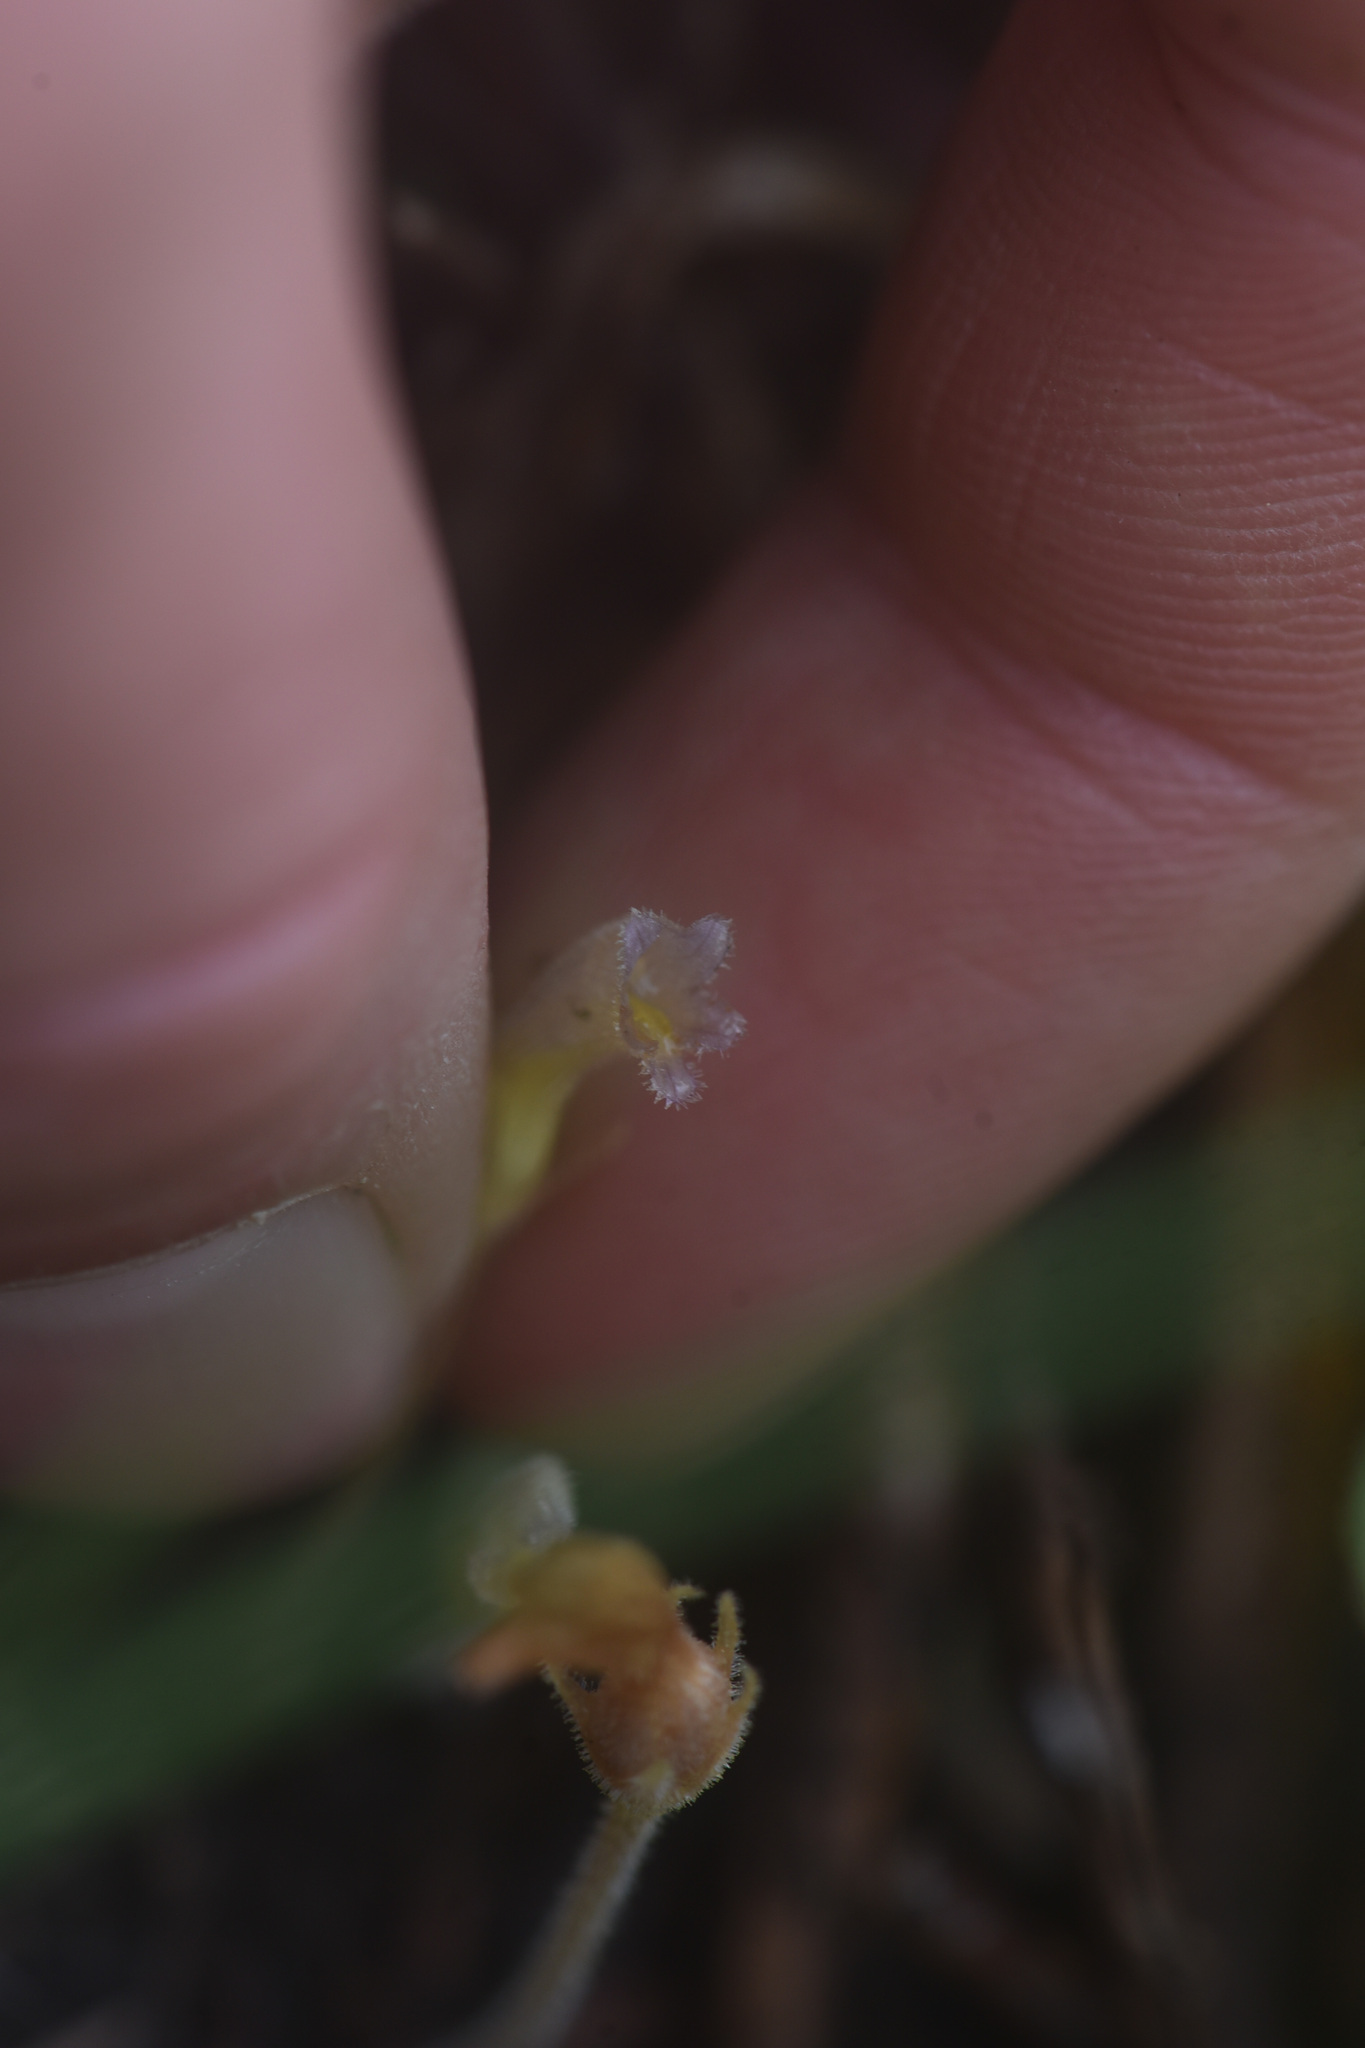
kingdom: Plantae
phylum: Tracheophyta
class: Magnoliopsida
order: Lamiales
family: Orobanchaceae
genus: Aphyllon
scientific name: Aphyllon uniflorum
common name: One-flowered broomrape
